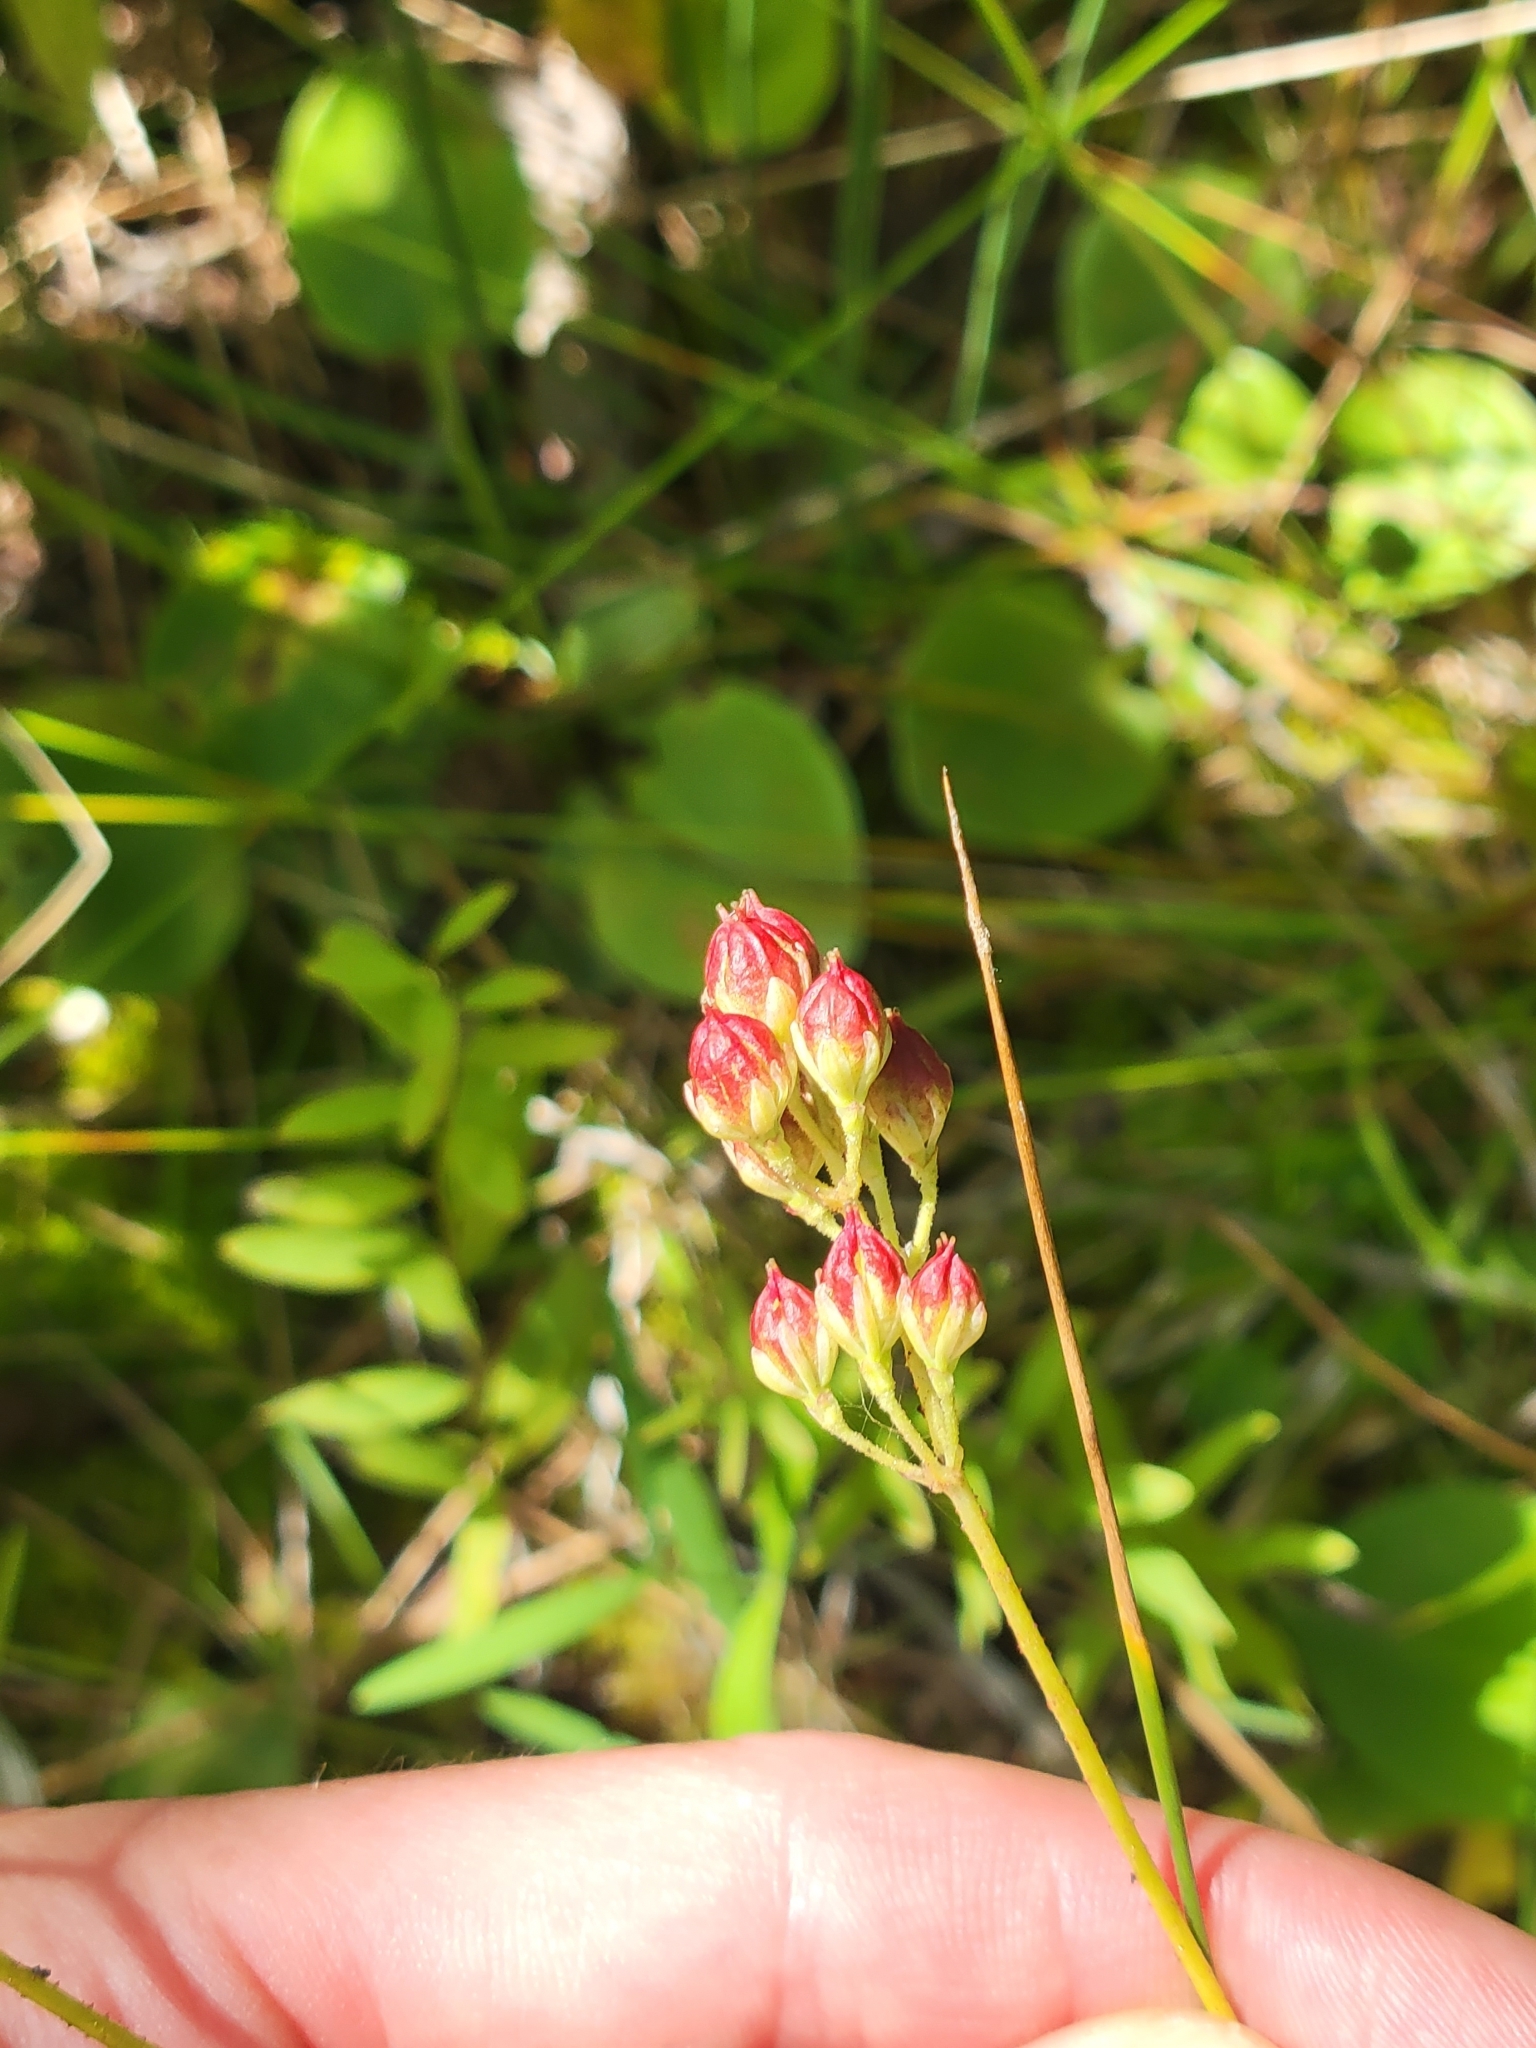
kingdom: Plantae
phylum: Tracheophyta
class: Liliopsida
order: Alismatales
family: Tofieldiaceae
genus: Triantha
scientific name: Triantha glutinosa
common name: Glutinous tofieldia
